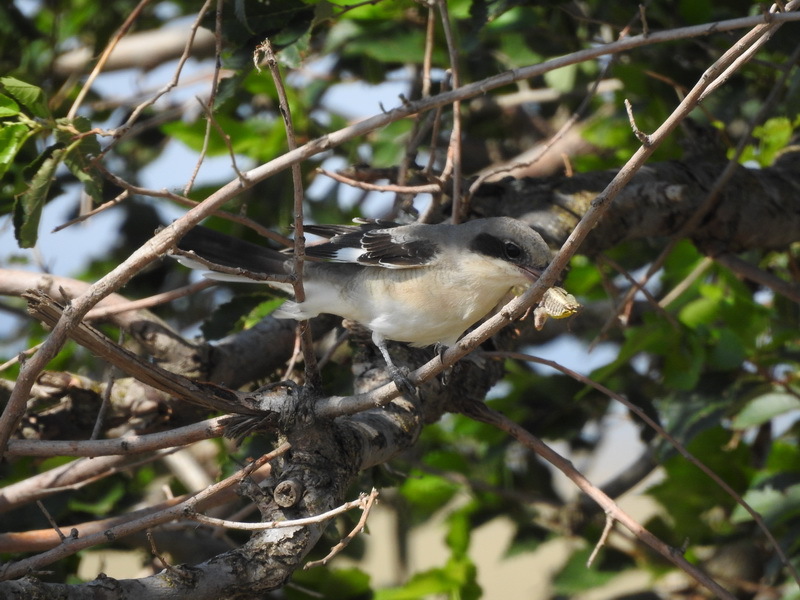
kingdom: Animalia
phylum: Chordata
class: Aves
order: Passeriformes
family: Laniidae
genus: Lanius
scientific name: Lanius excubitor
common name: Great grey shrike
